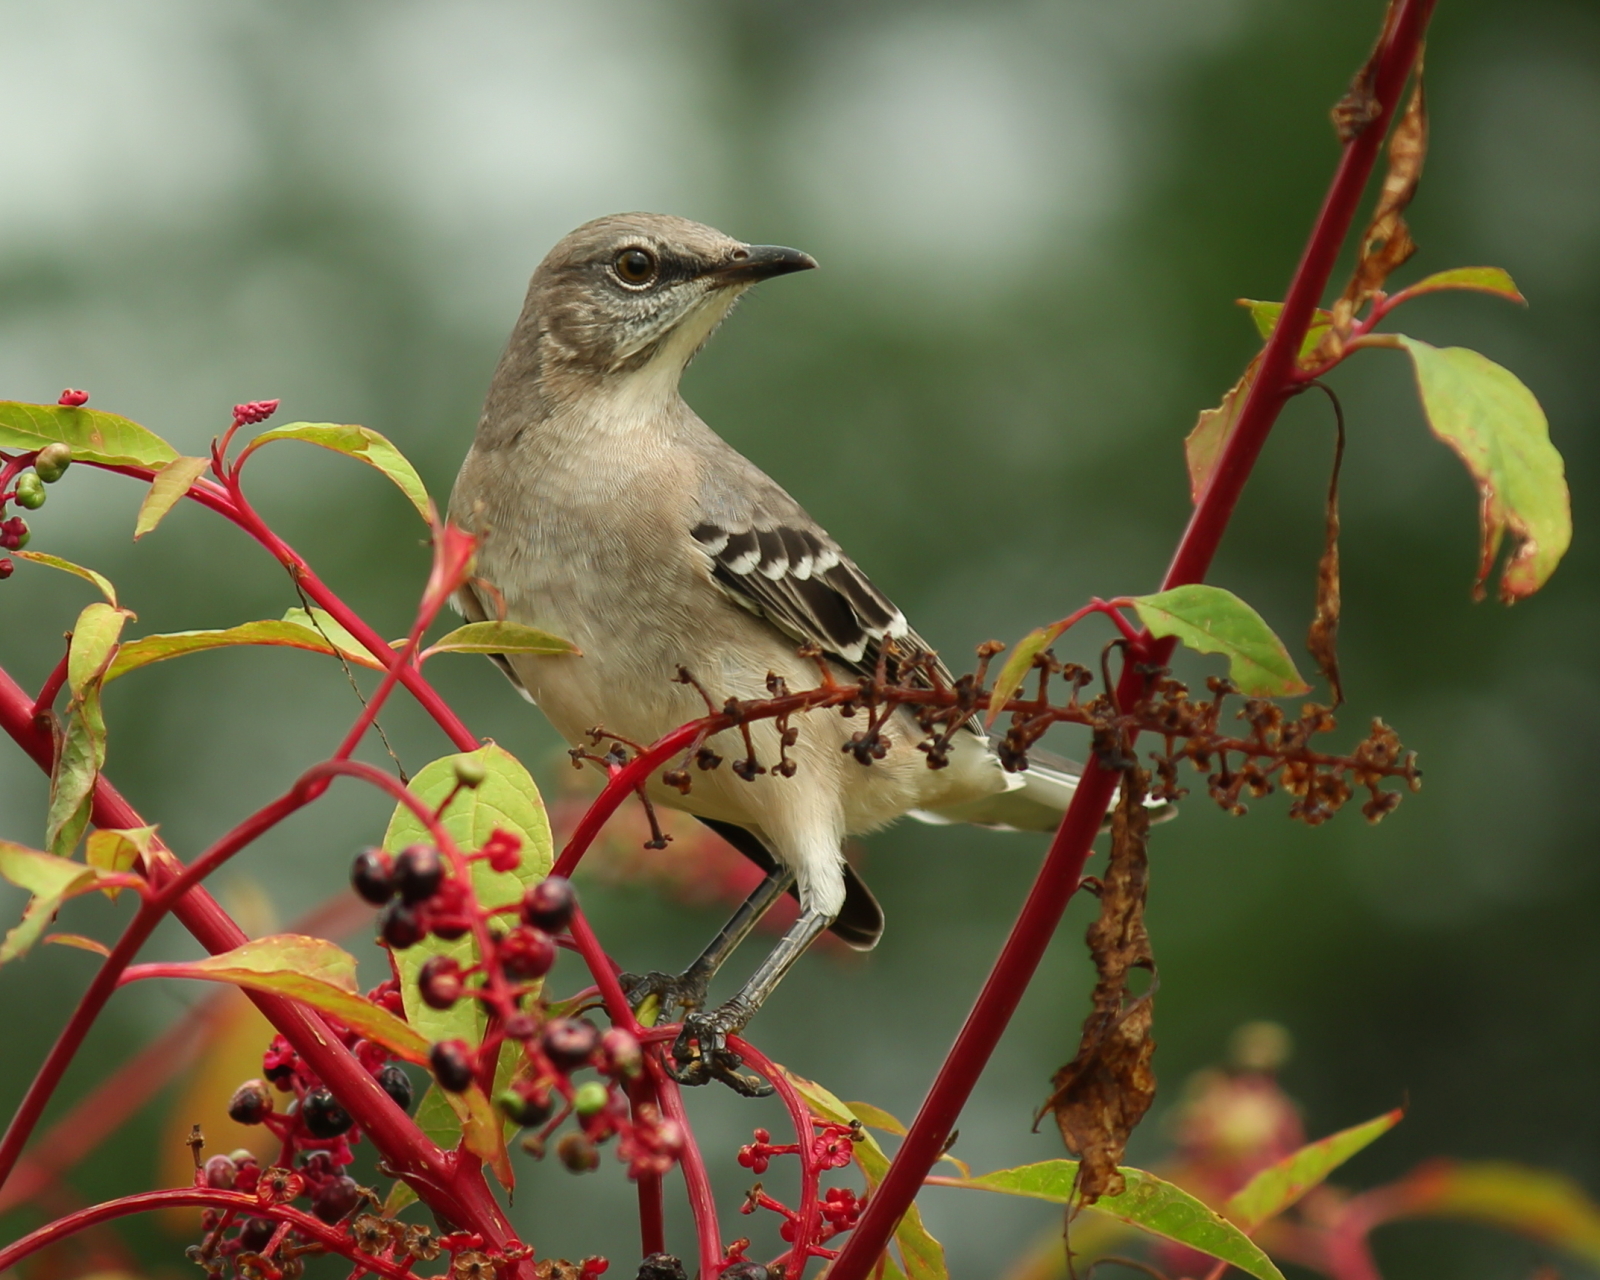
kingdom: Animalia
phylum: Chordata
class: Aves
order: Passeriformes
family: Mimidae
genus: Mimus
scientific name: Mimus polyglottos
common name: Northern mockingbird
